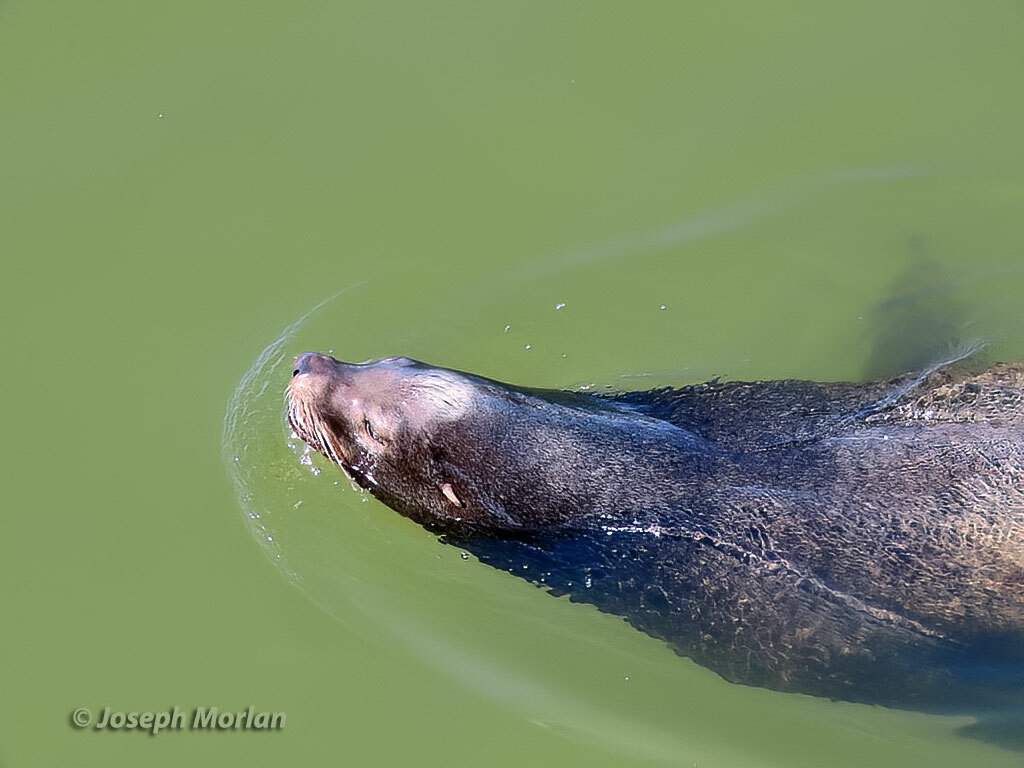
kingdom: Animalia
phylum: Chordata
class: Mammalia
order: Carnivora
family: Otariidae
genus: Zalophus
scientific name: Zalophus californianus
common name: California sea lion
